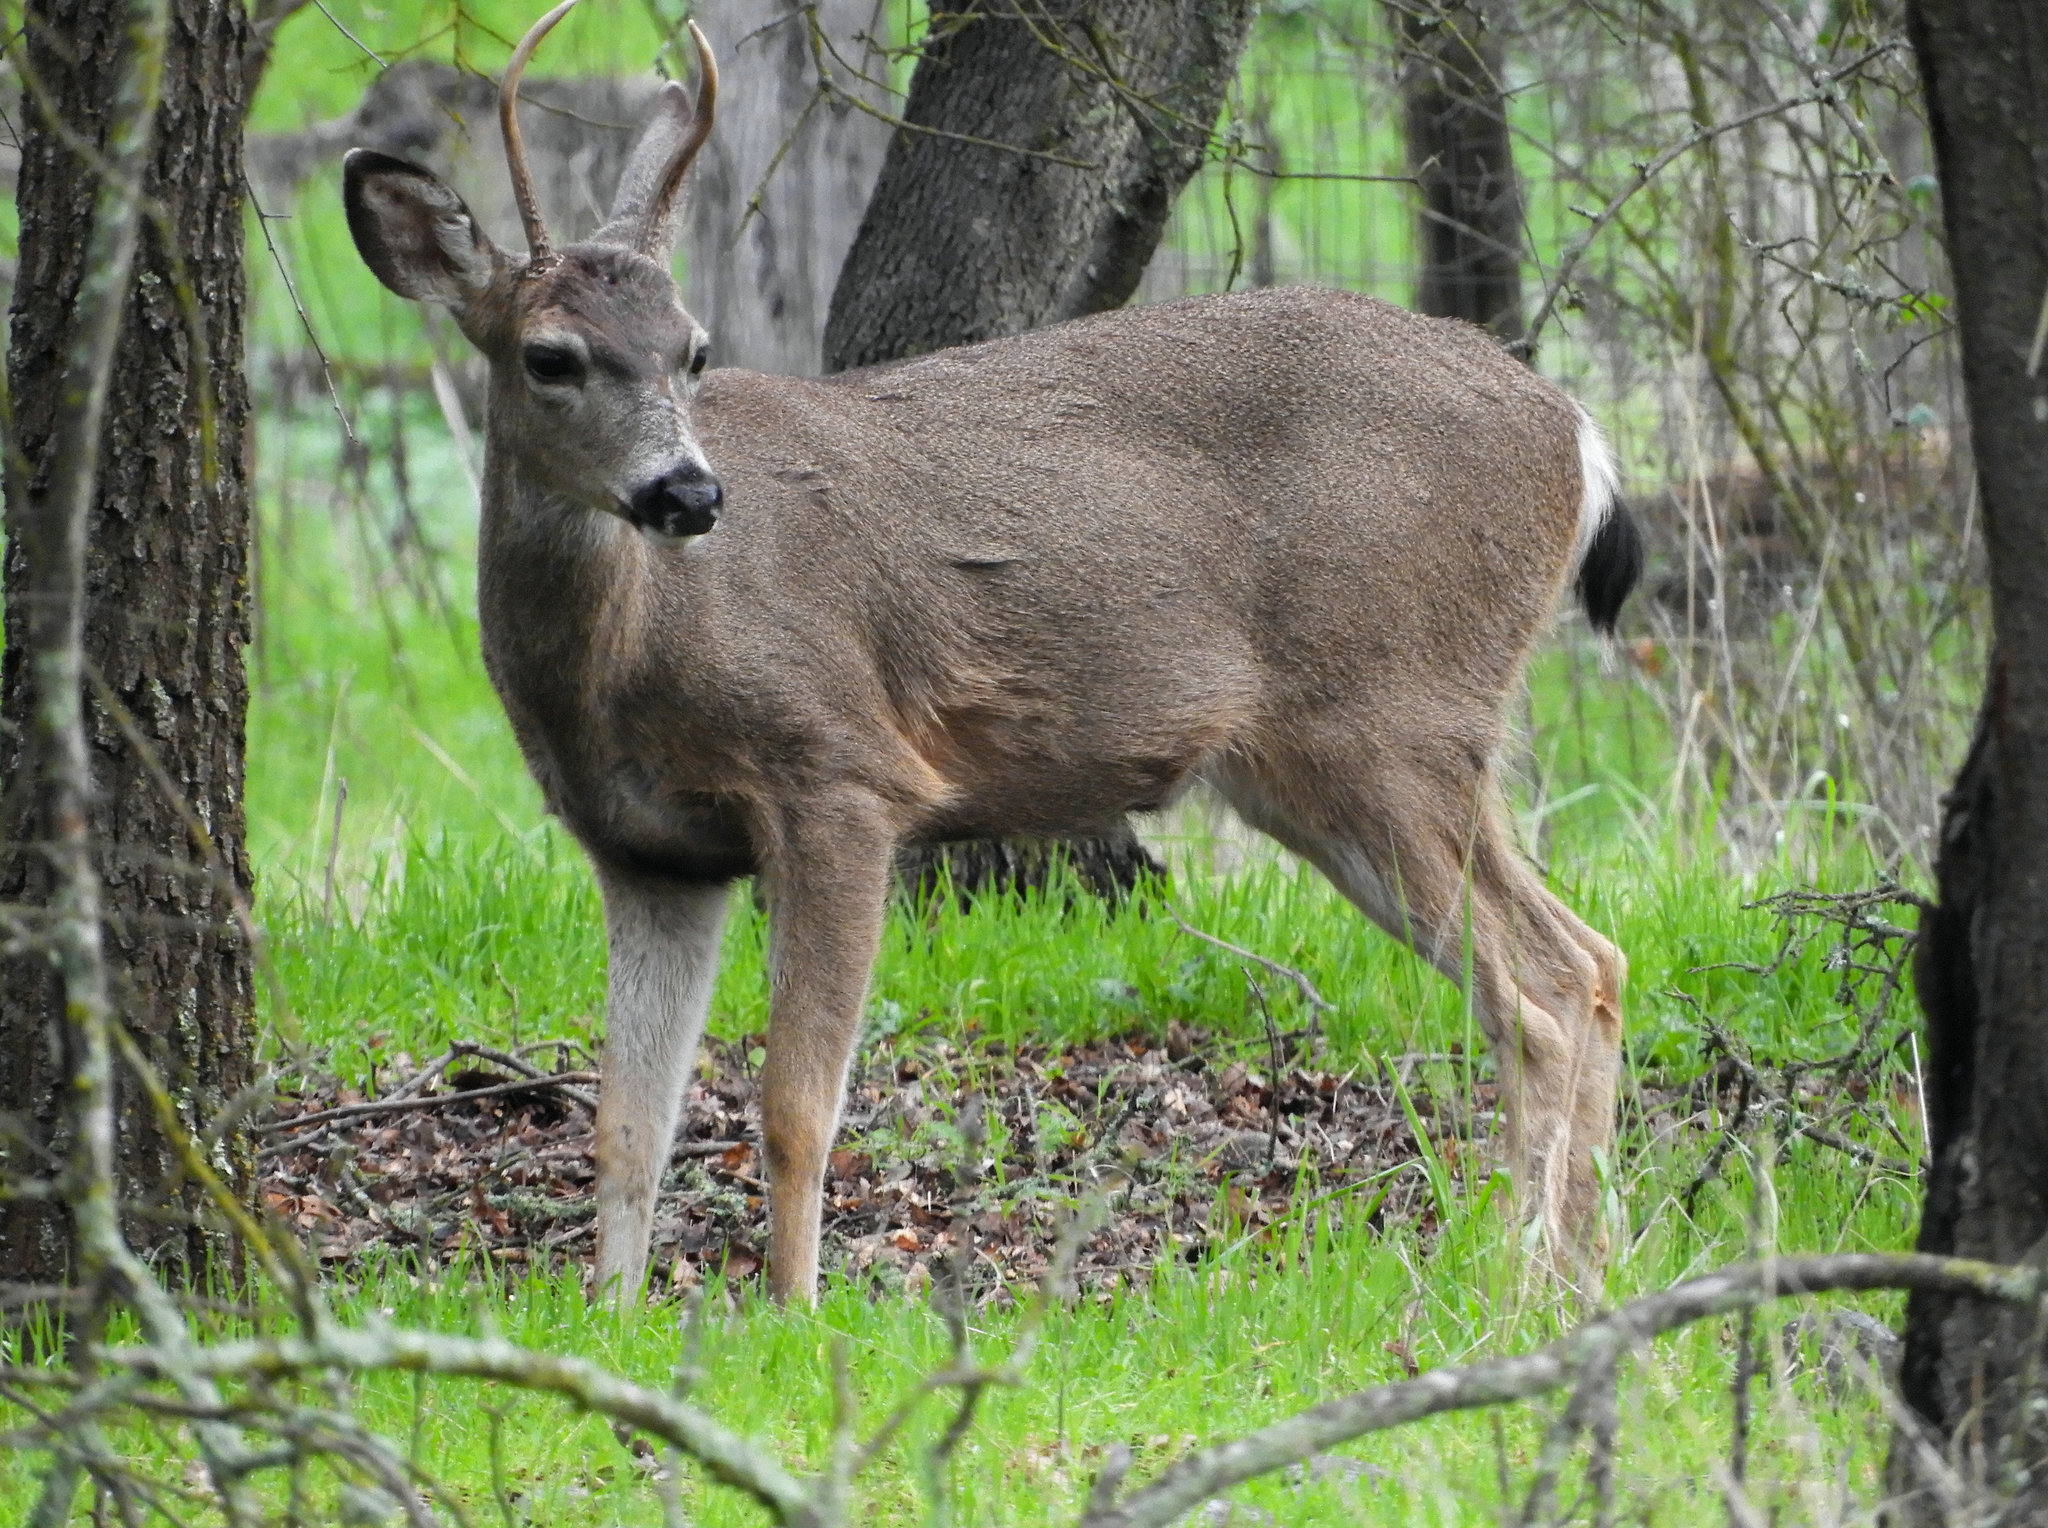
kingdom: Animalia
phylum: Chordata
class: Mammalia
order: Artiodactyla
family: Cervidae
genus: Odocoileus
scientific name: Odocoileus hemionus
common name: Mule deer
